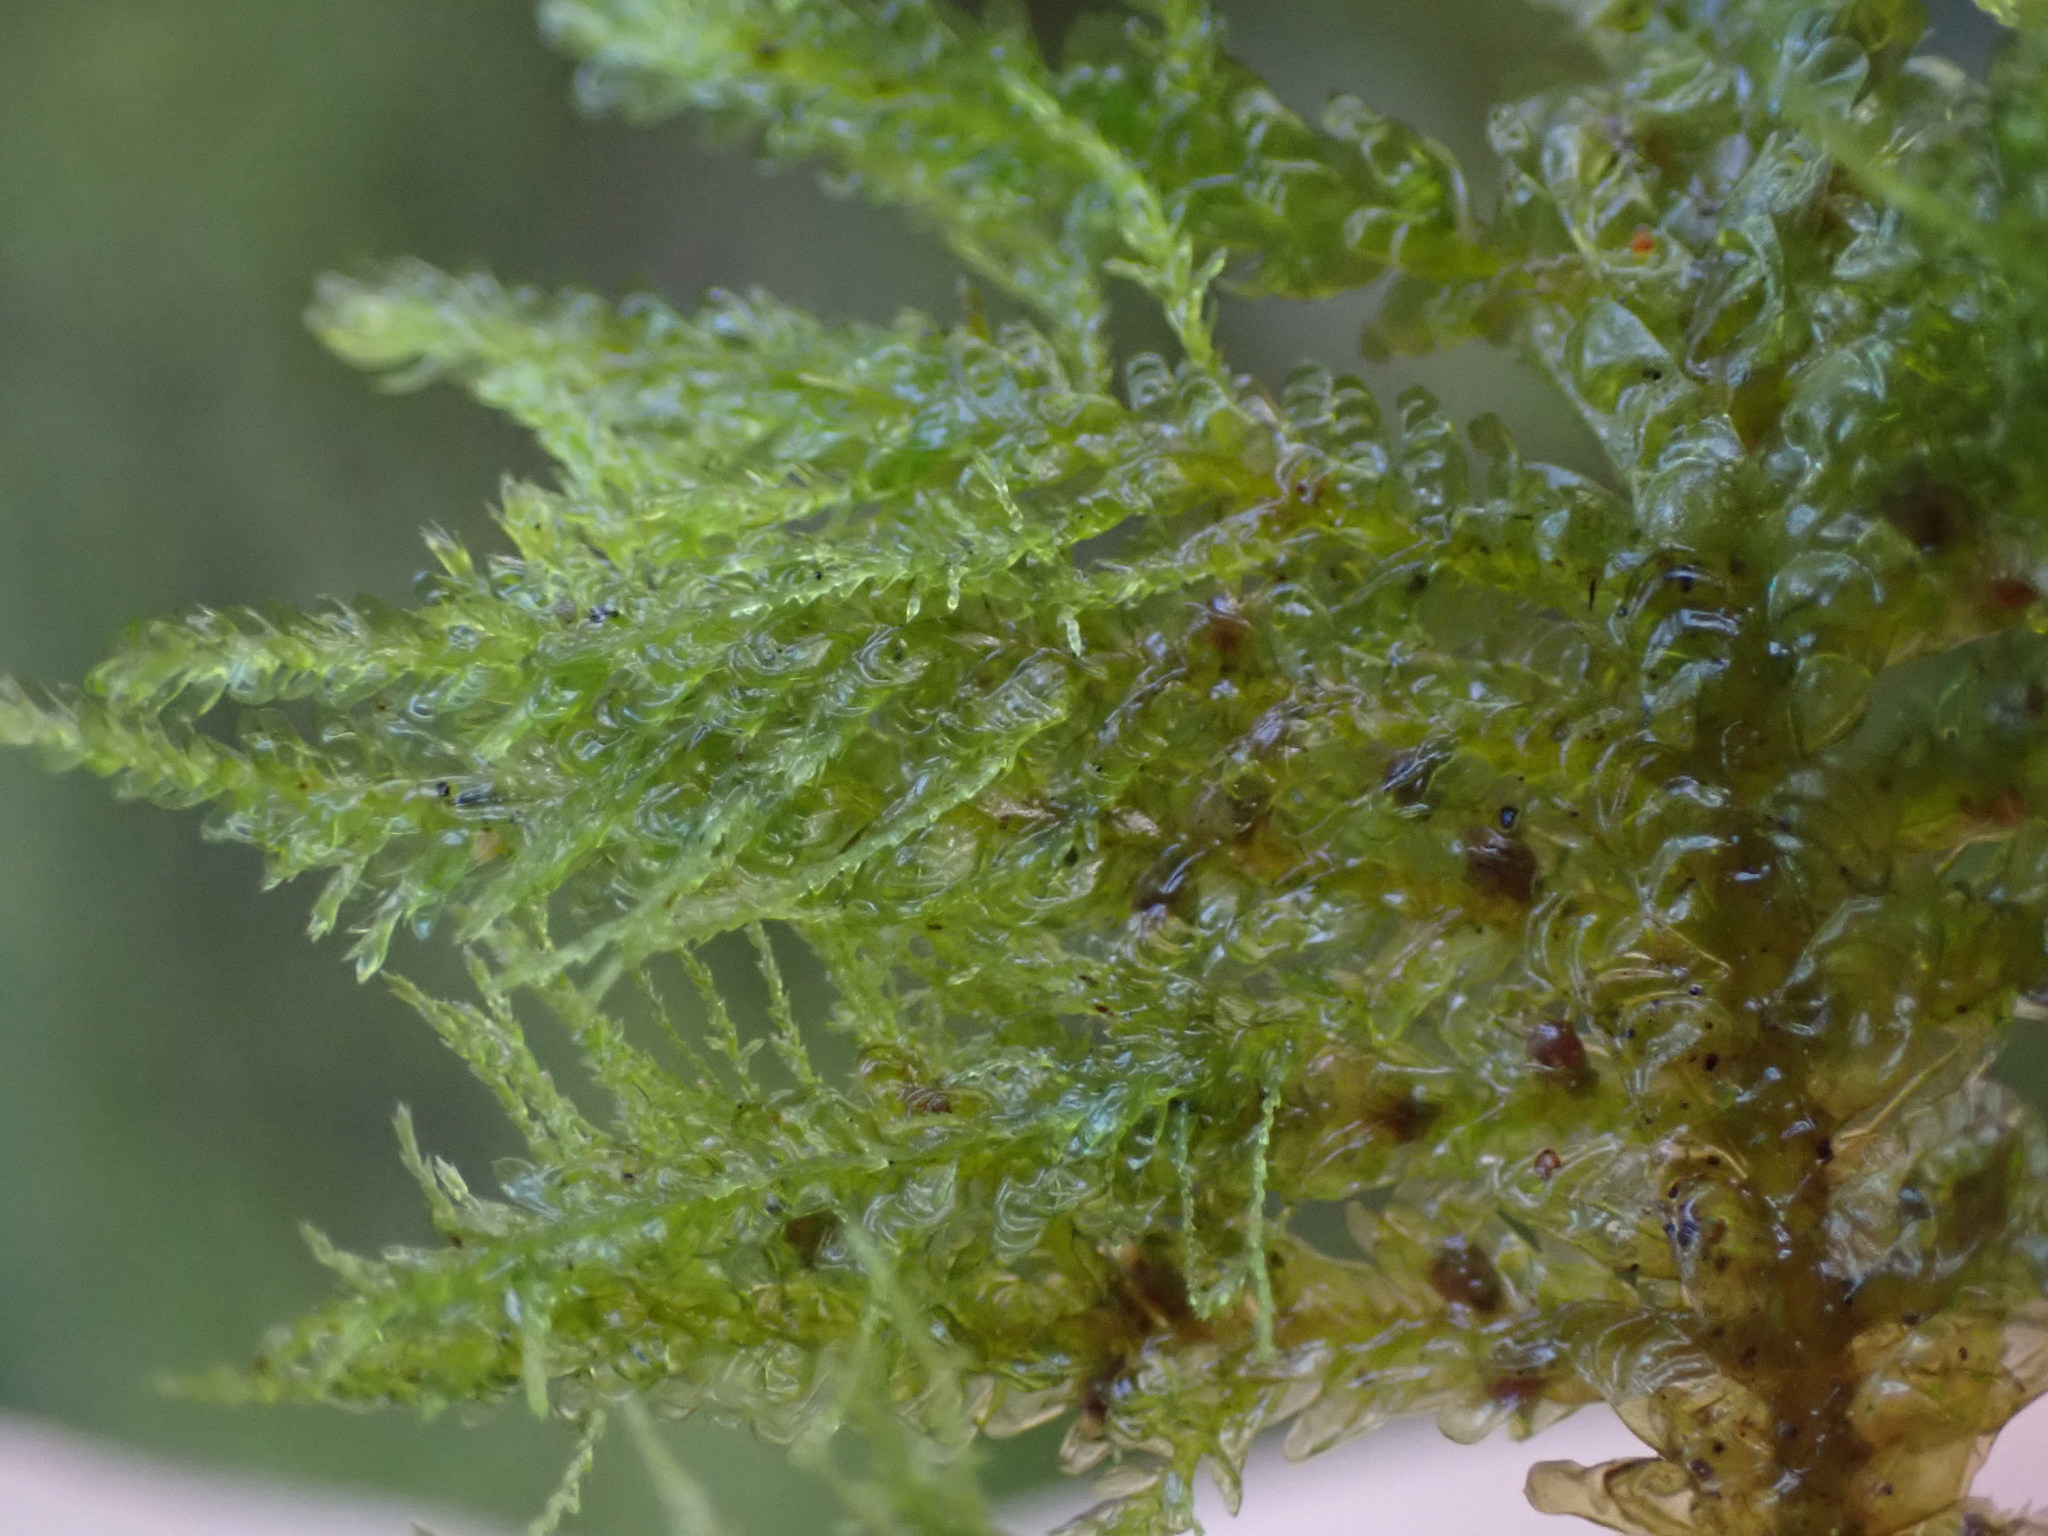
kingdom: Plantae
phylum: Bryophyta
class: Bryopsida
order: Hypnales
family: Neckeraceae
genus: Metaneckera
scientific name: Metaneckera menziesii
